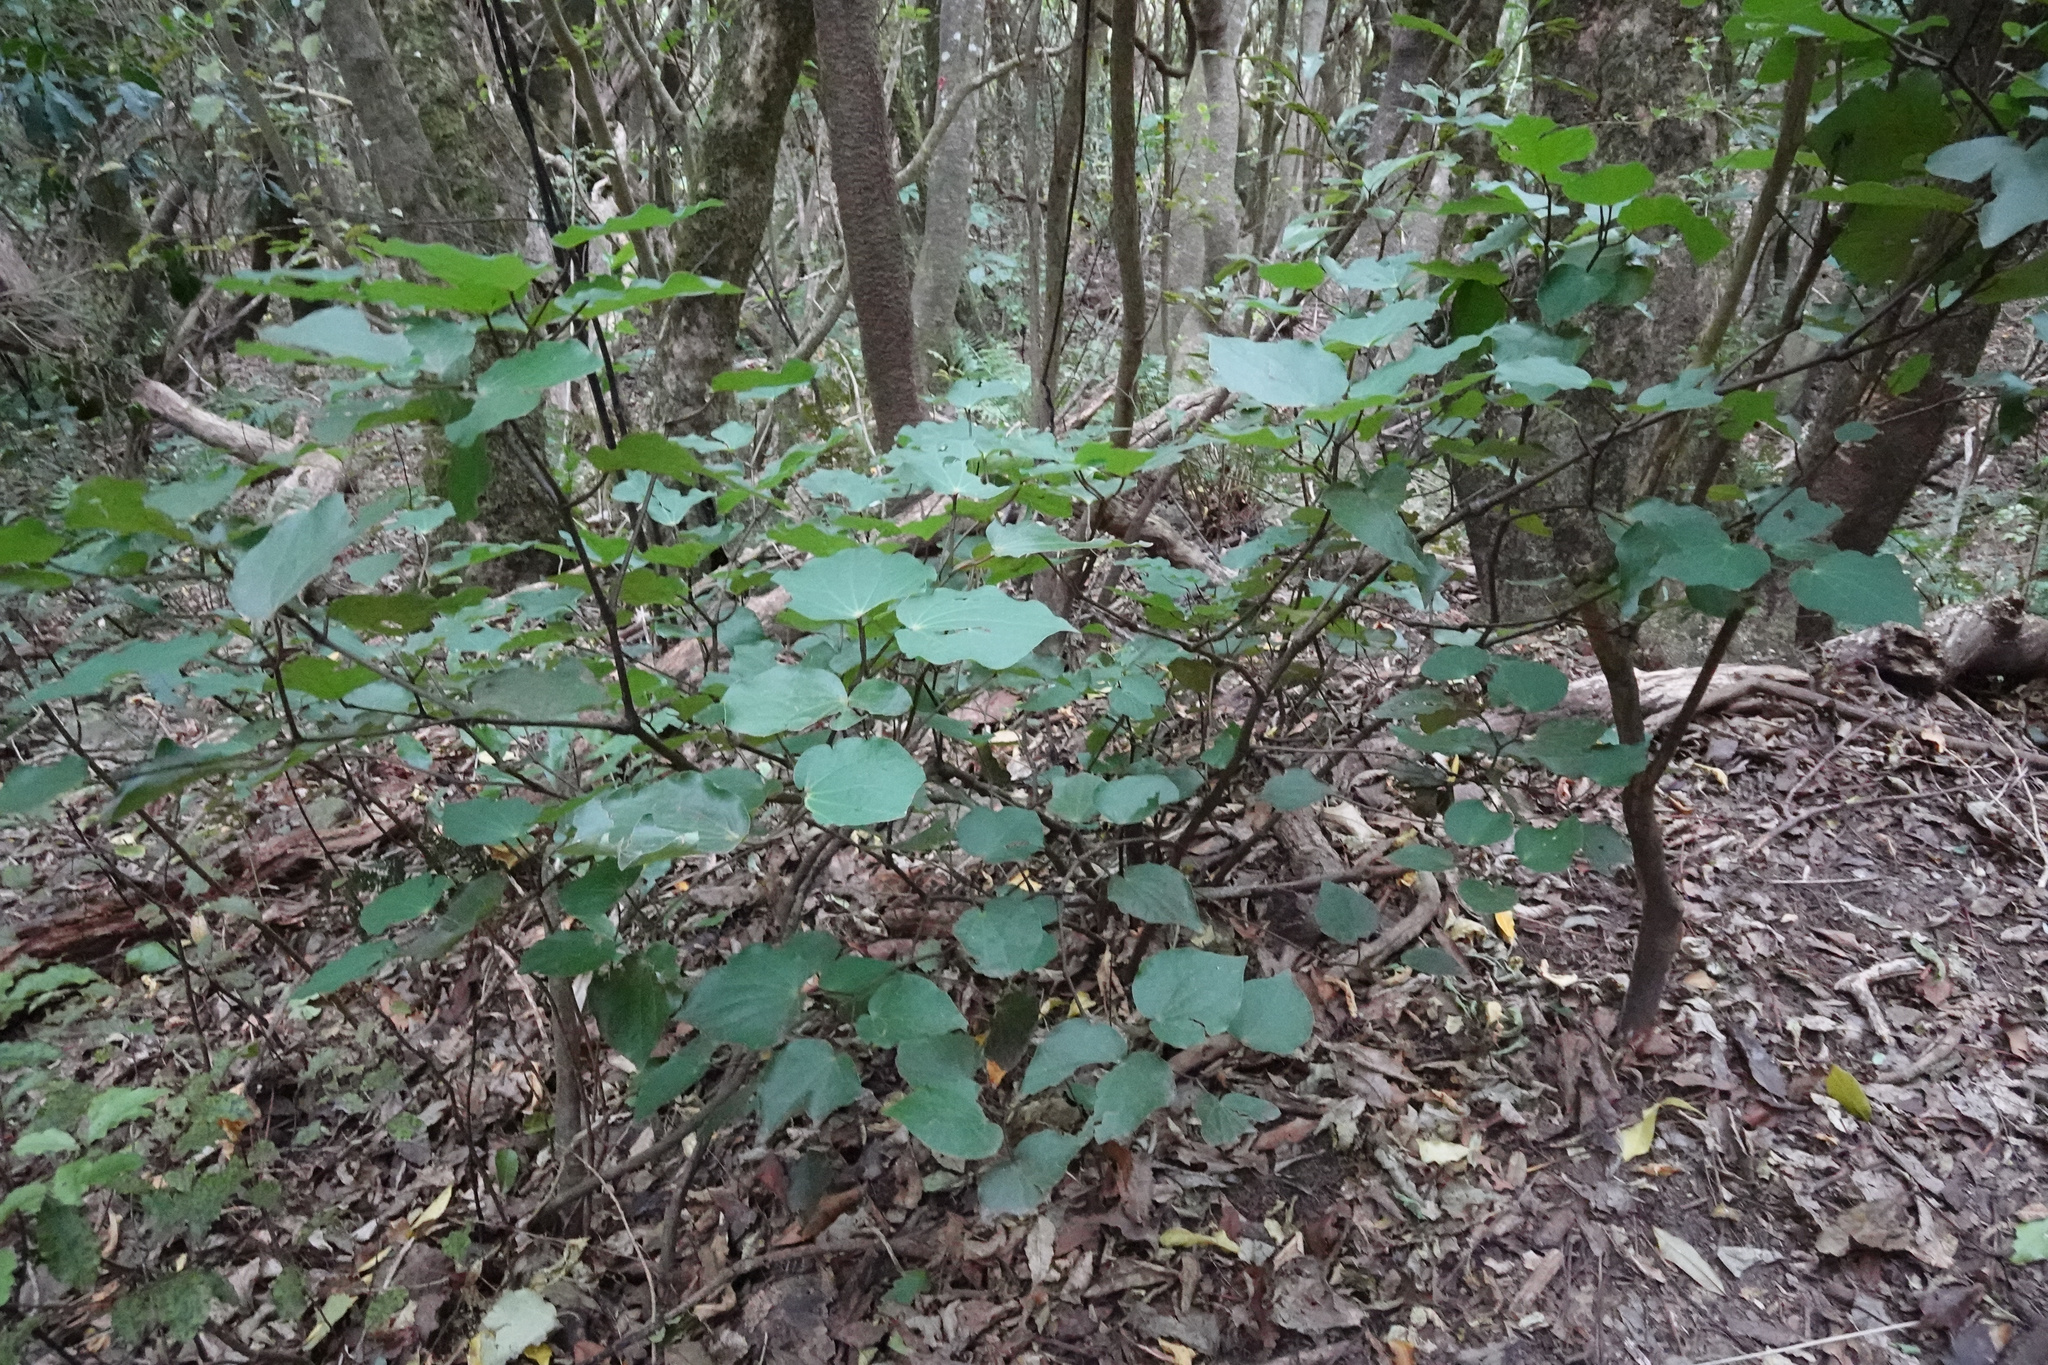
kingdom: Plantae
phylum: Tracheophyta
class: Magnoliopsida
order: Piperales
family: Piperaceae
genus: Macropiper
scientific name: Macropiper excelsum
